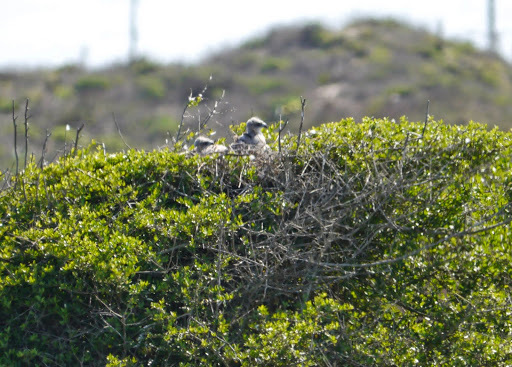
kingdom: Animalia
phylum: Chordata
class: Aves
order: Accipitriformes
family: Accipitridae
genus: Buteo
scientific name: Buteo albicaudatus
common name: White-tailed hawk
